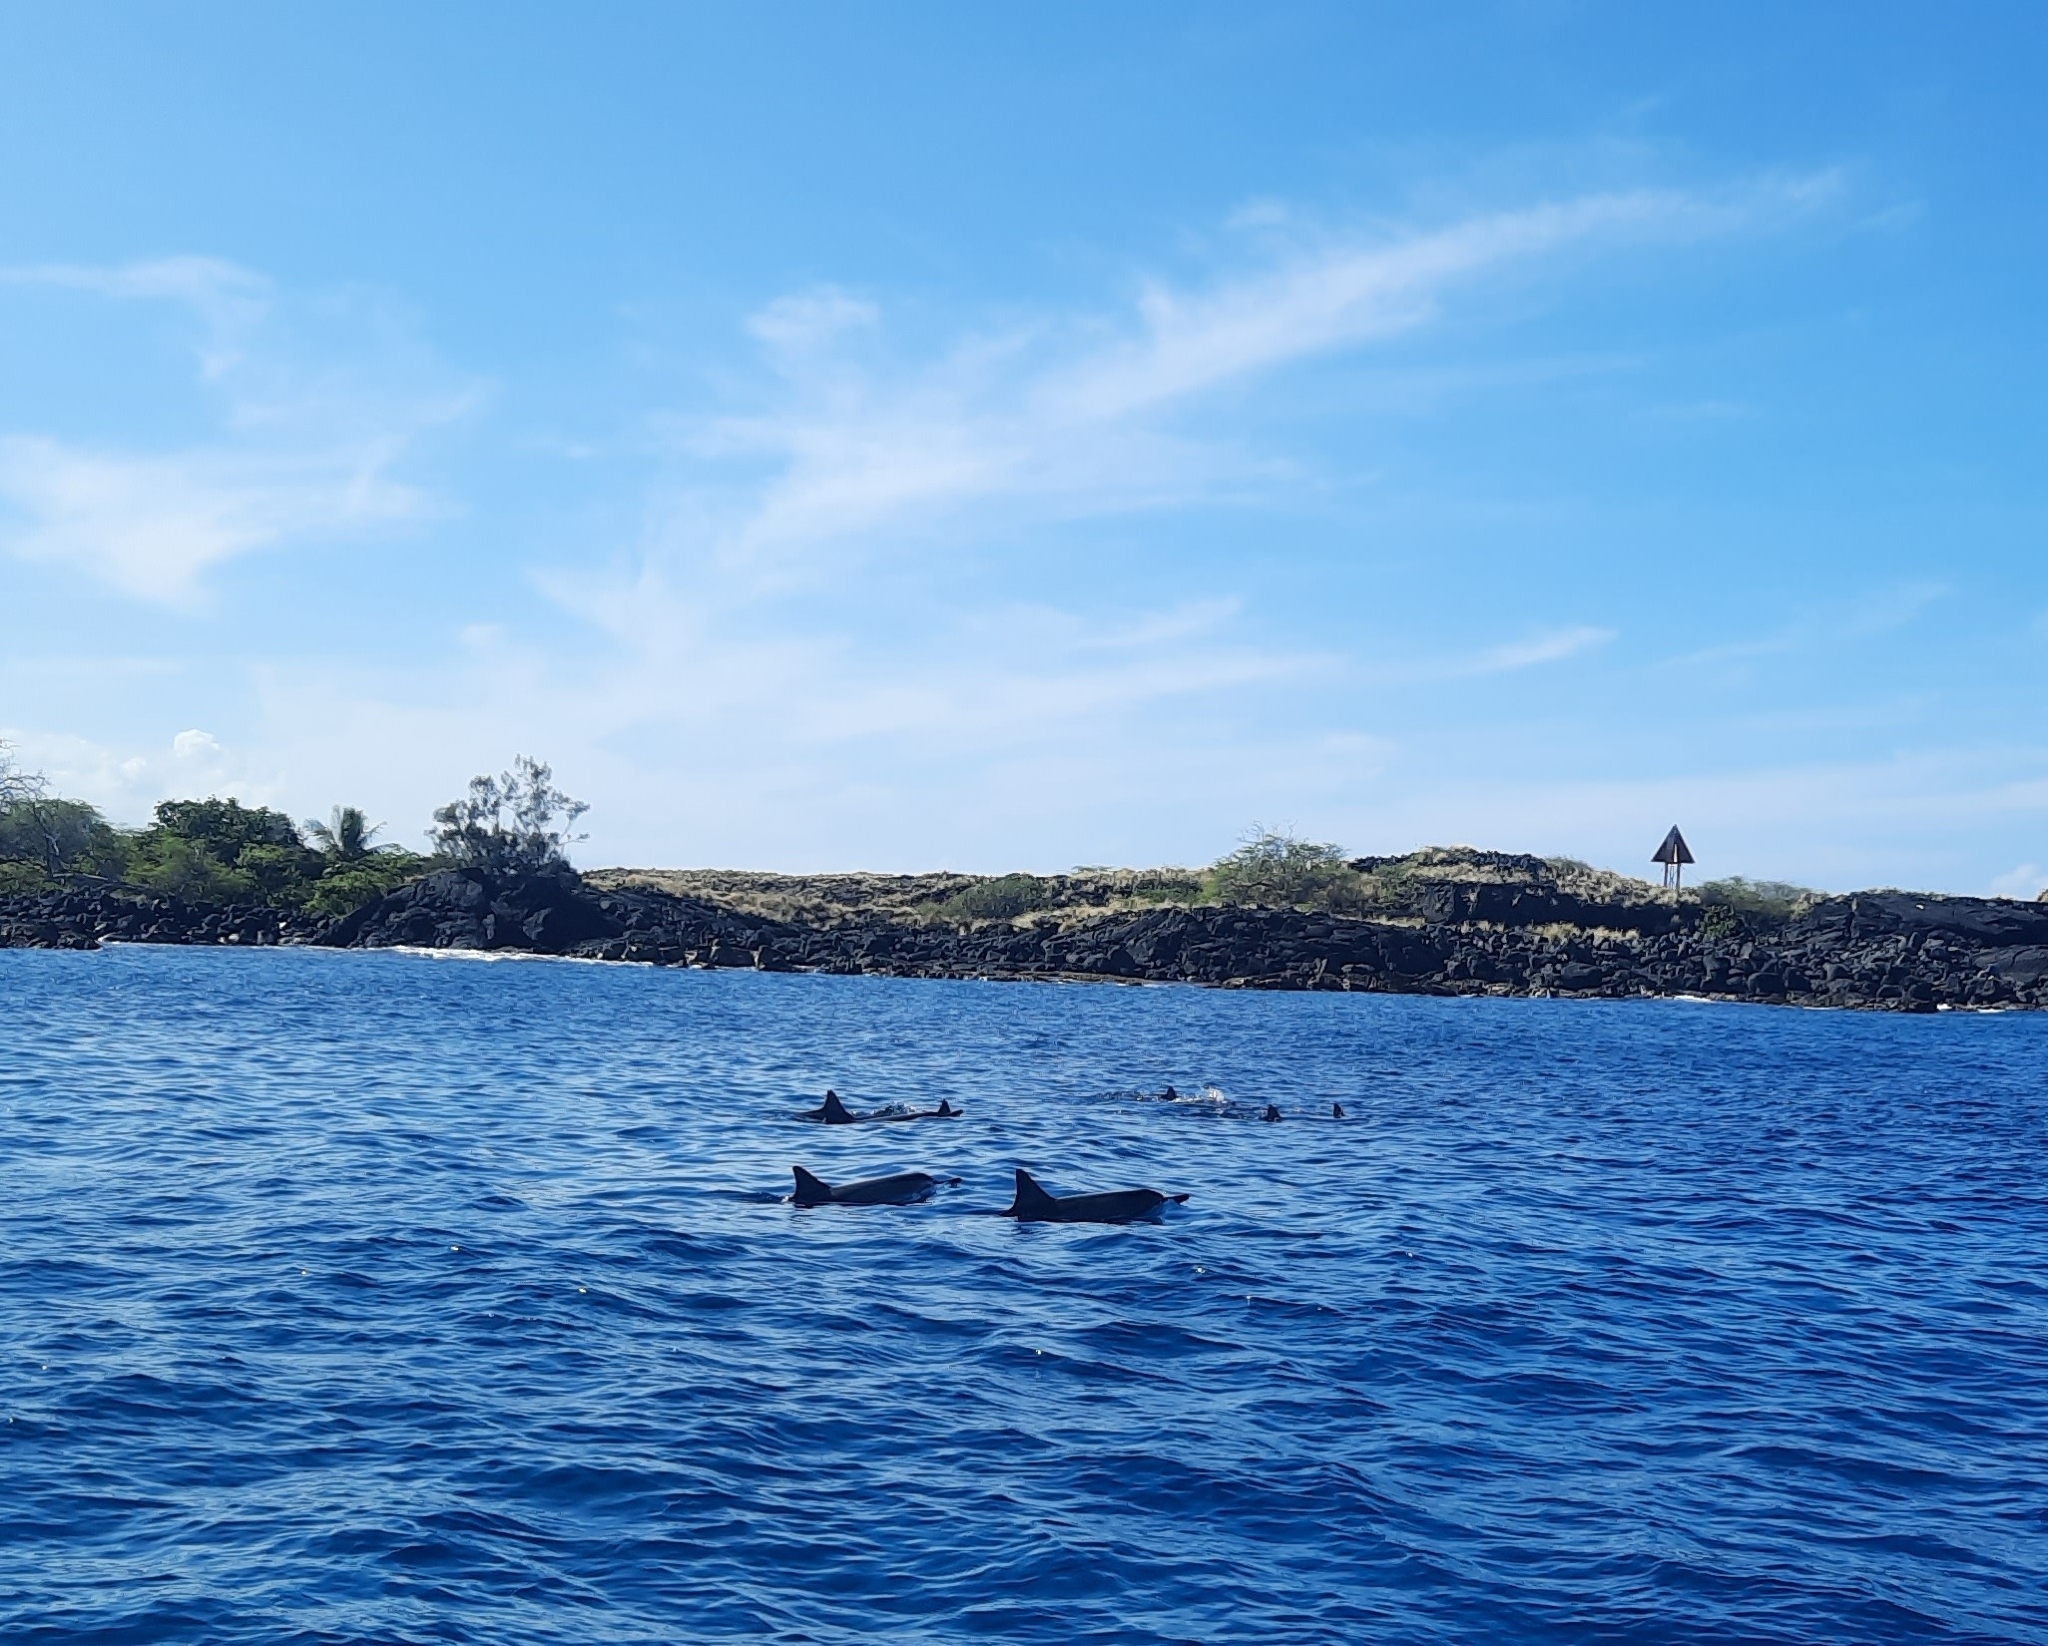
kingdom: Animalia
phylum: Chordata
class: Mammalia
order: Cetacea
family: Delphinidae
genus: Stenella
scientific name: Stenella longirostris
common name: Spinner dolphin
